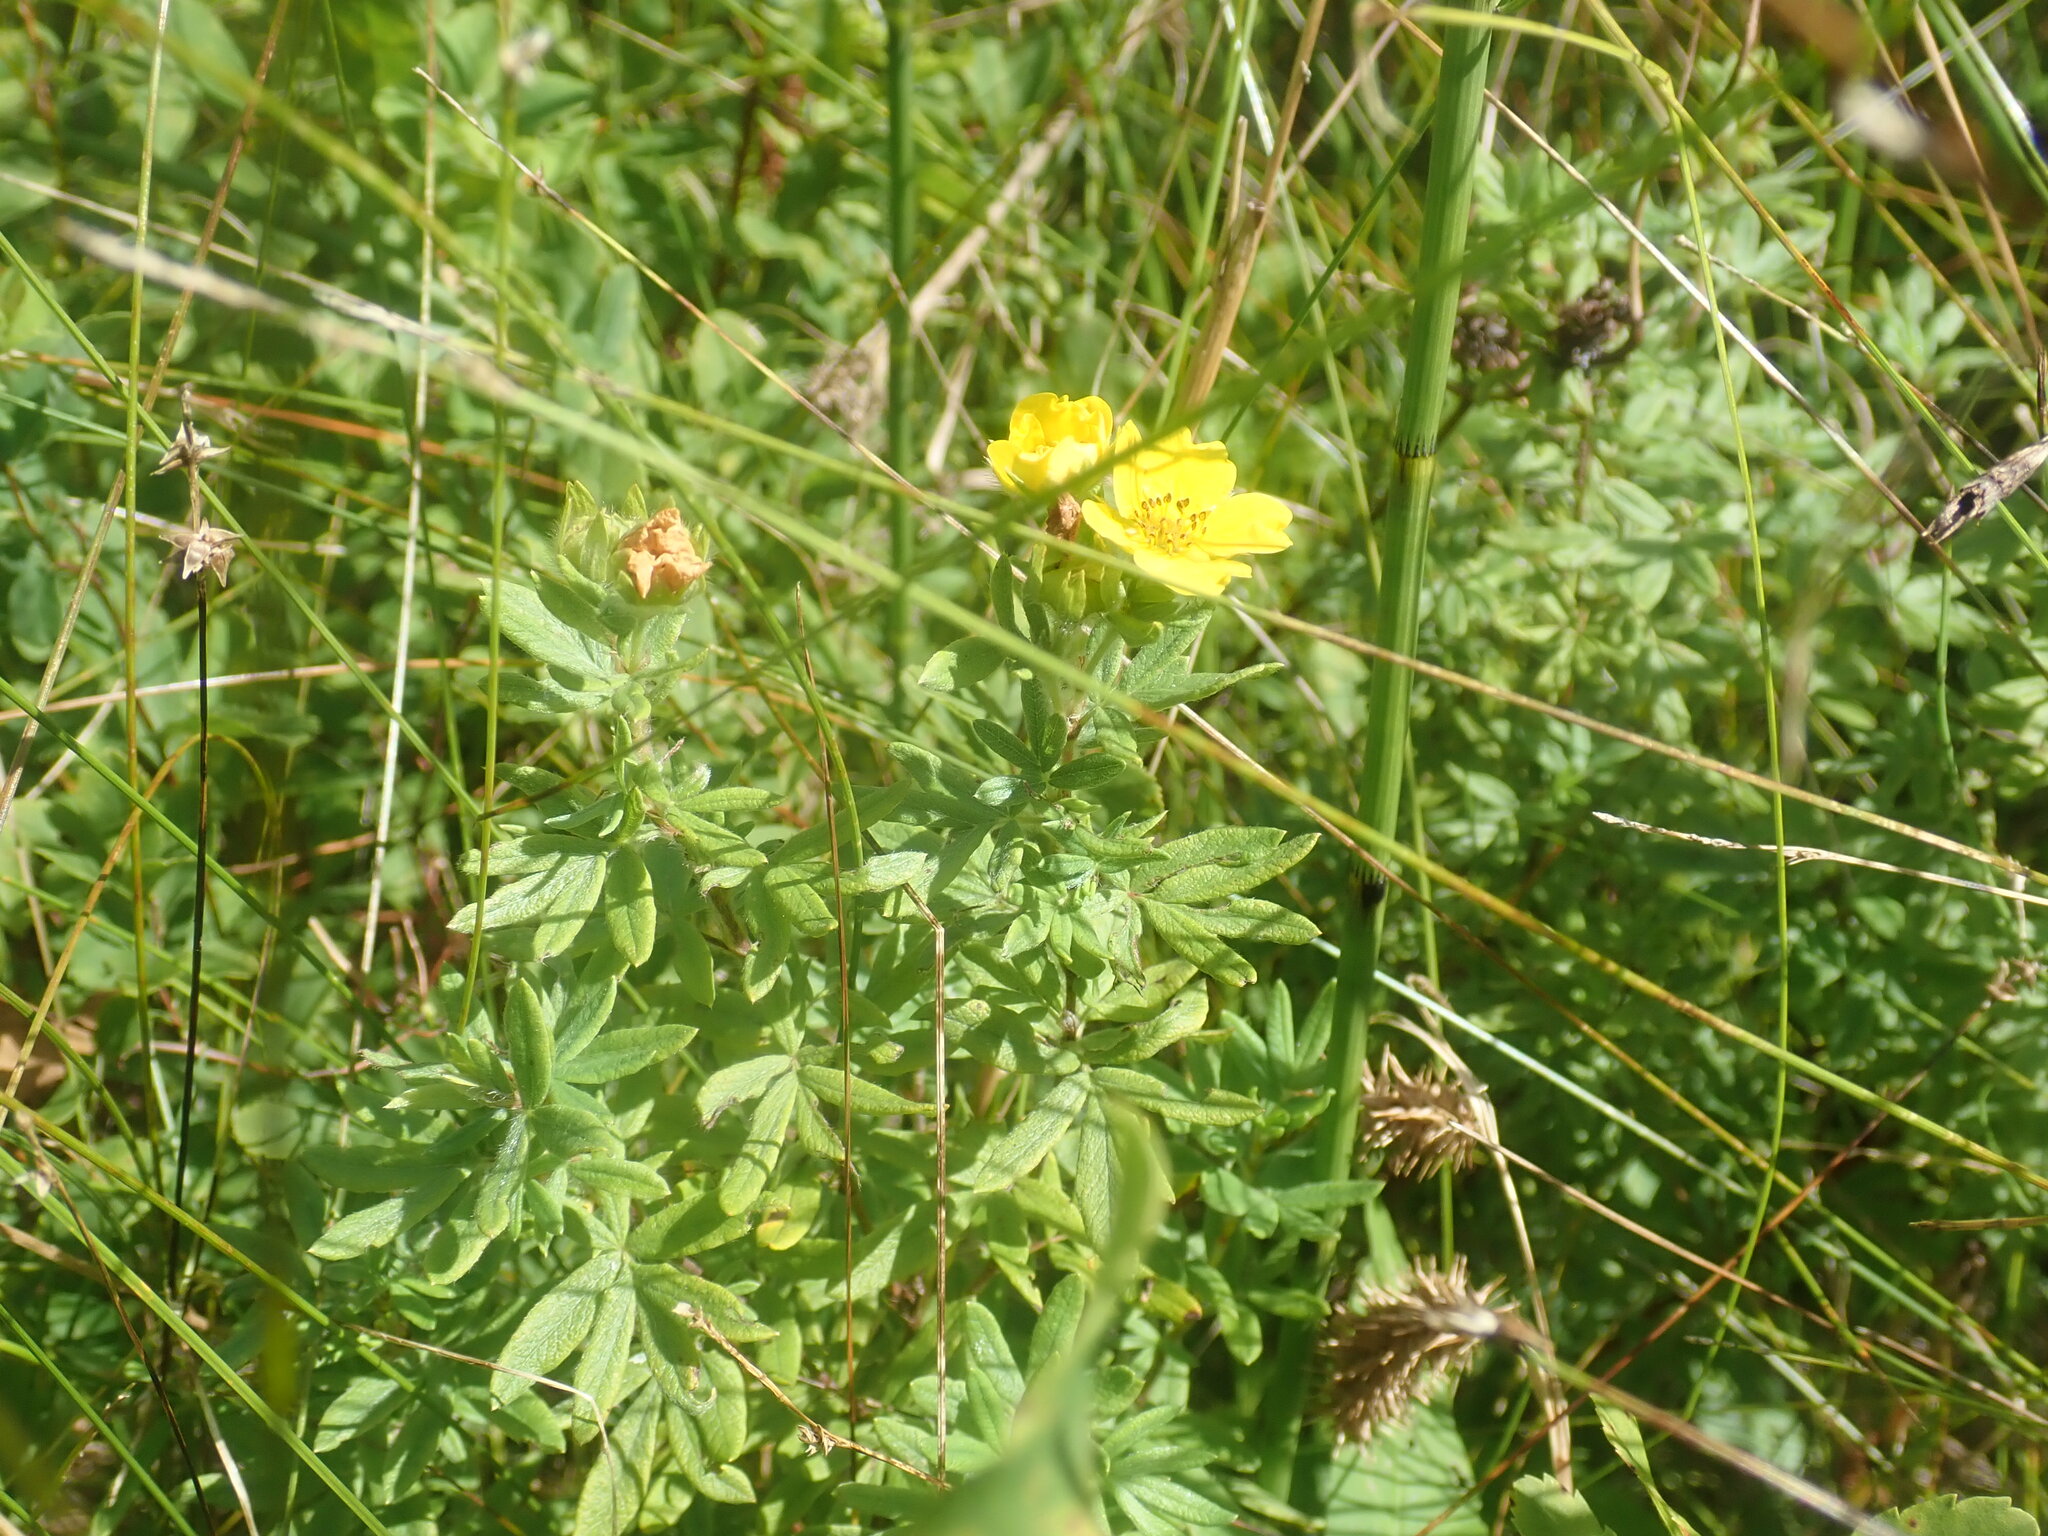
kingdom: Plantae
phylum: Tracheophyta
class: Magnoliopsida
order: Rosales
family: Rosaceae
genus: Dasiphora
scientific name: Dasiphora fruticosa
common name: Shrubby cinquefoil
